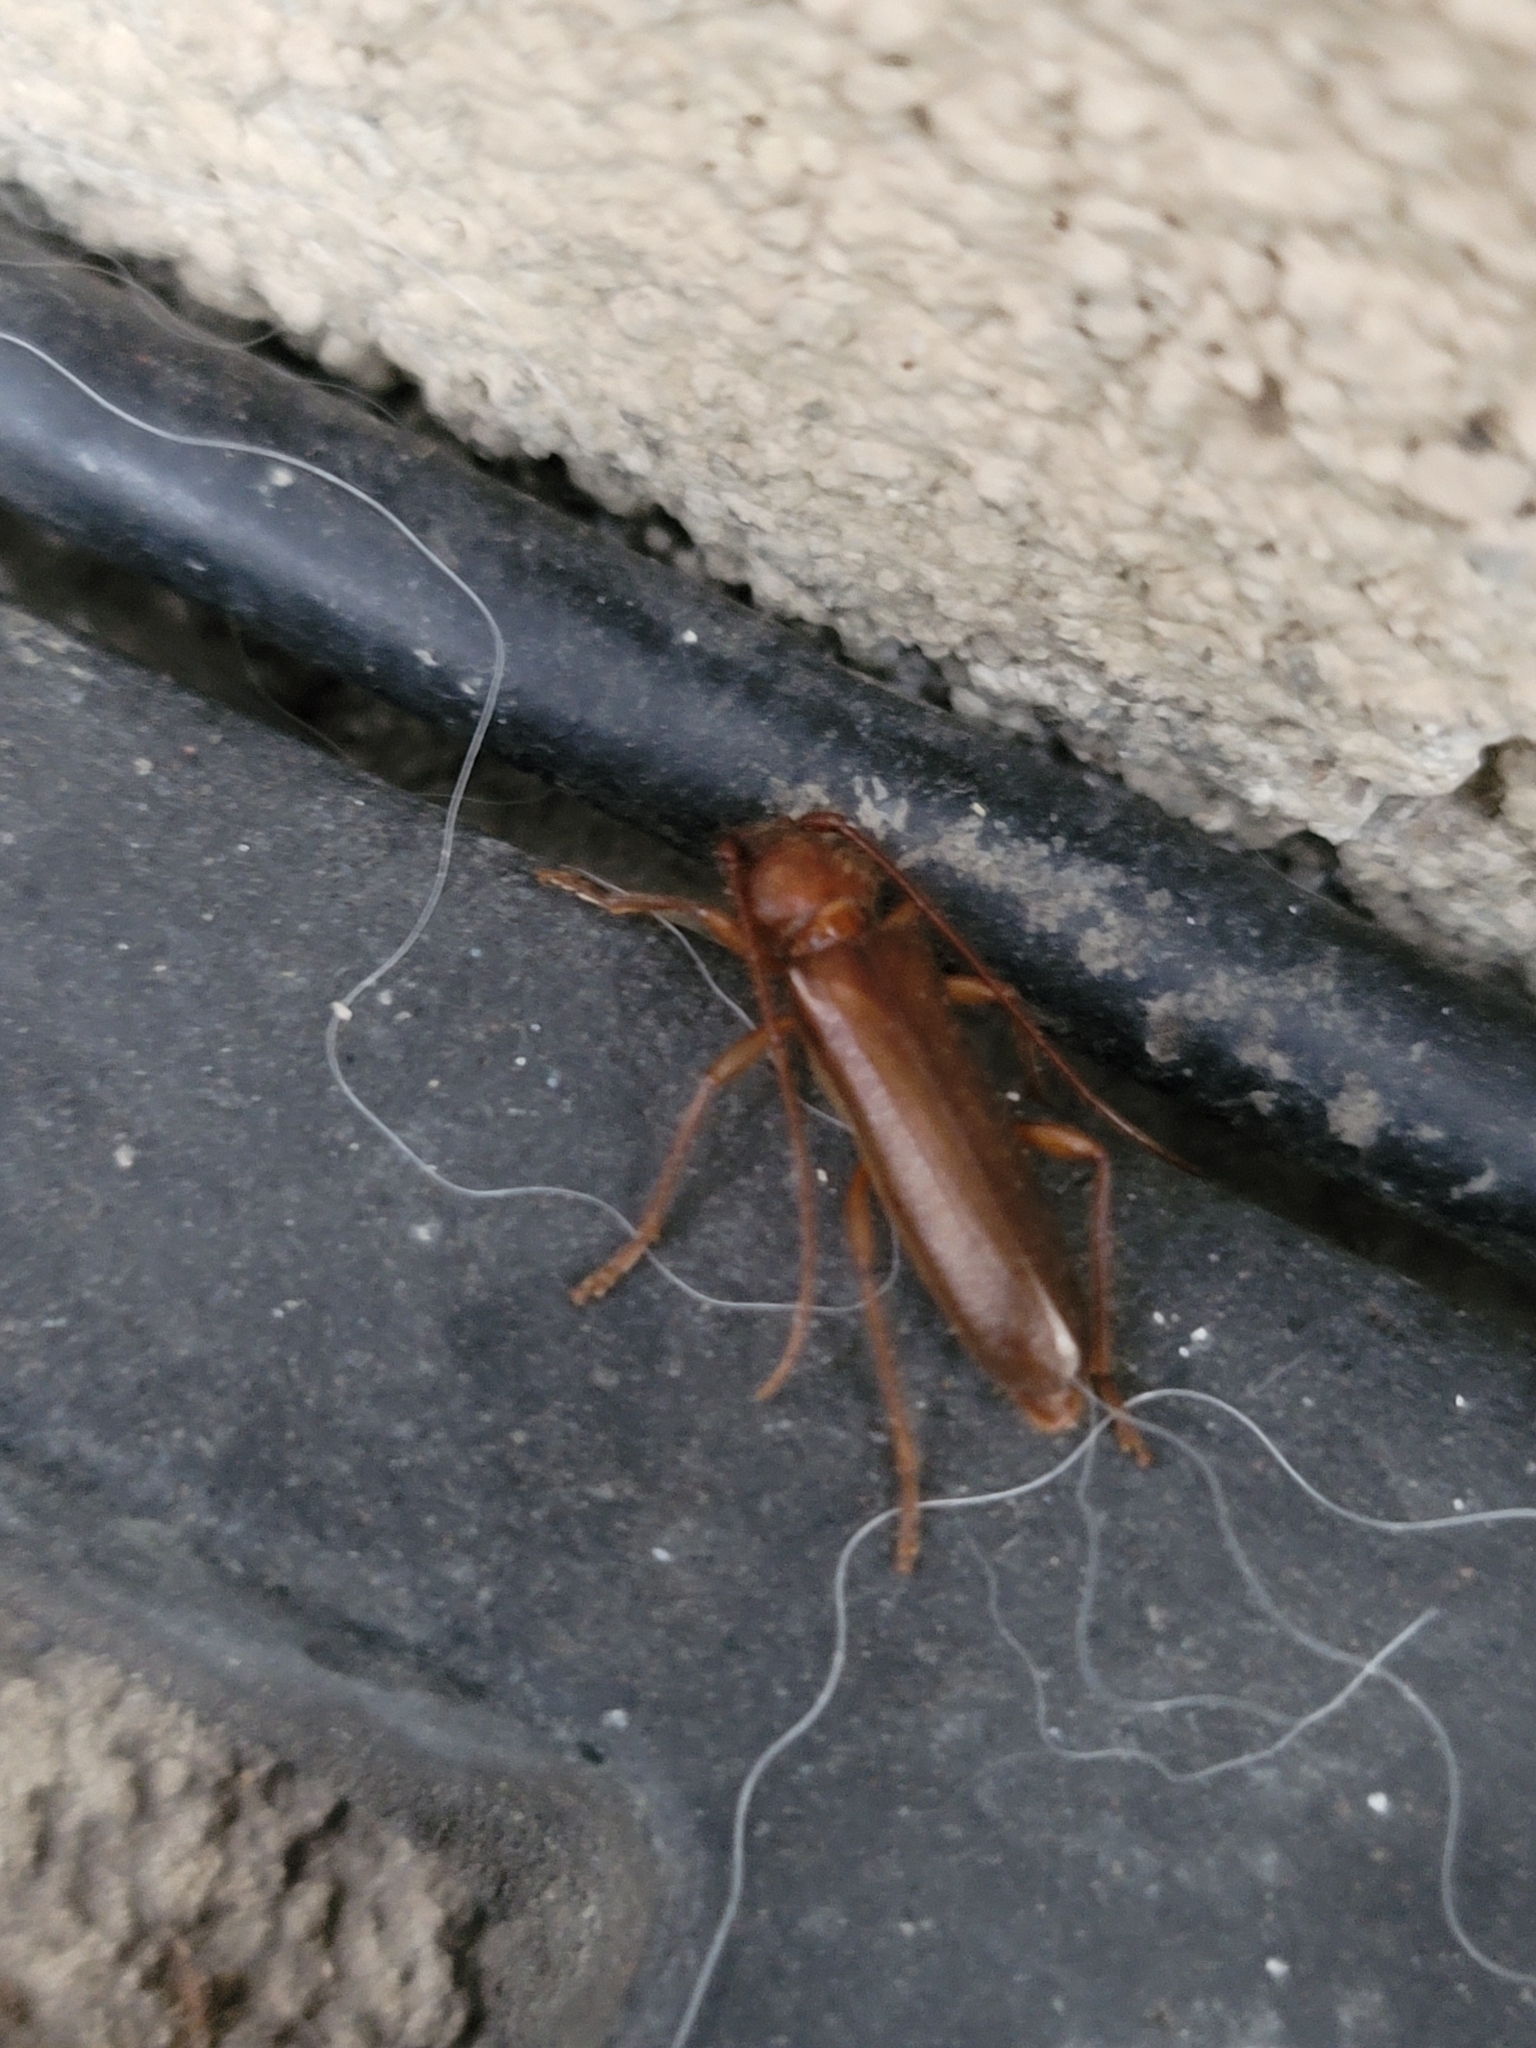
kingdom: Animalia
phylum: Arthropoda
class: Insecta
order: Coleoptera
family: Cerambycidae
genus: Paranoplium
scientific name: Paranoplium gracile
